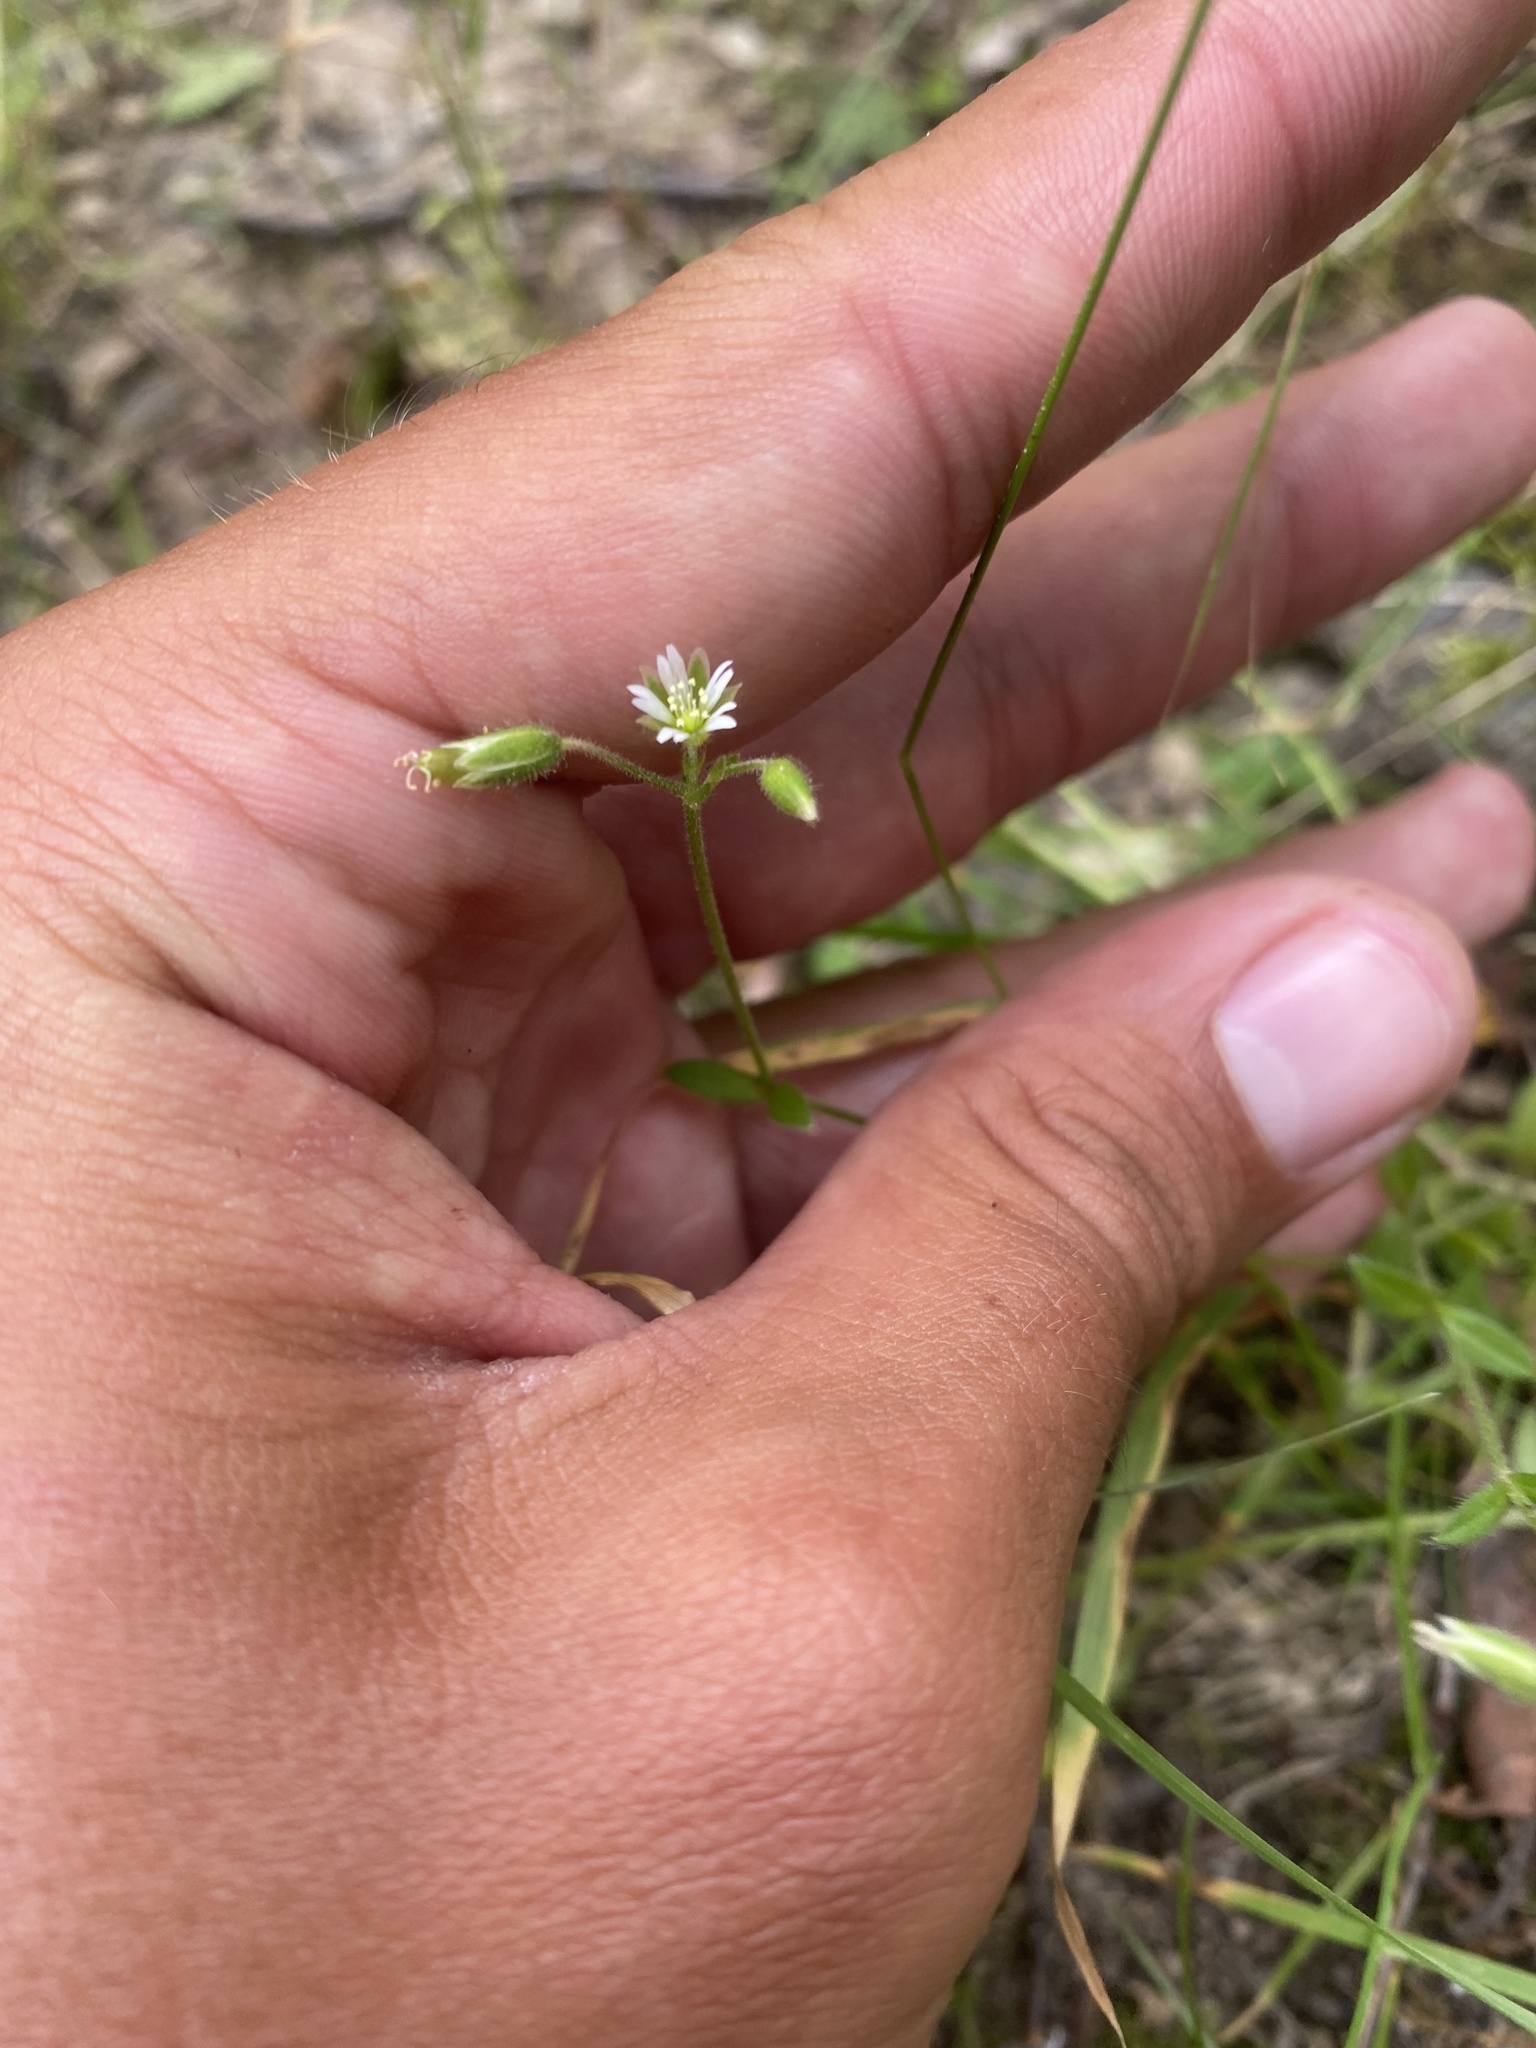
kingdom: Plantae
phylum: Tracheophyta
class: Magnoliopsida
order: Caryophyllales
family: Caryophyllaceae
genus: Cerastium
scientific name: Cerastium holosteoides
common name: Big chickweed
